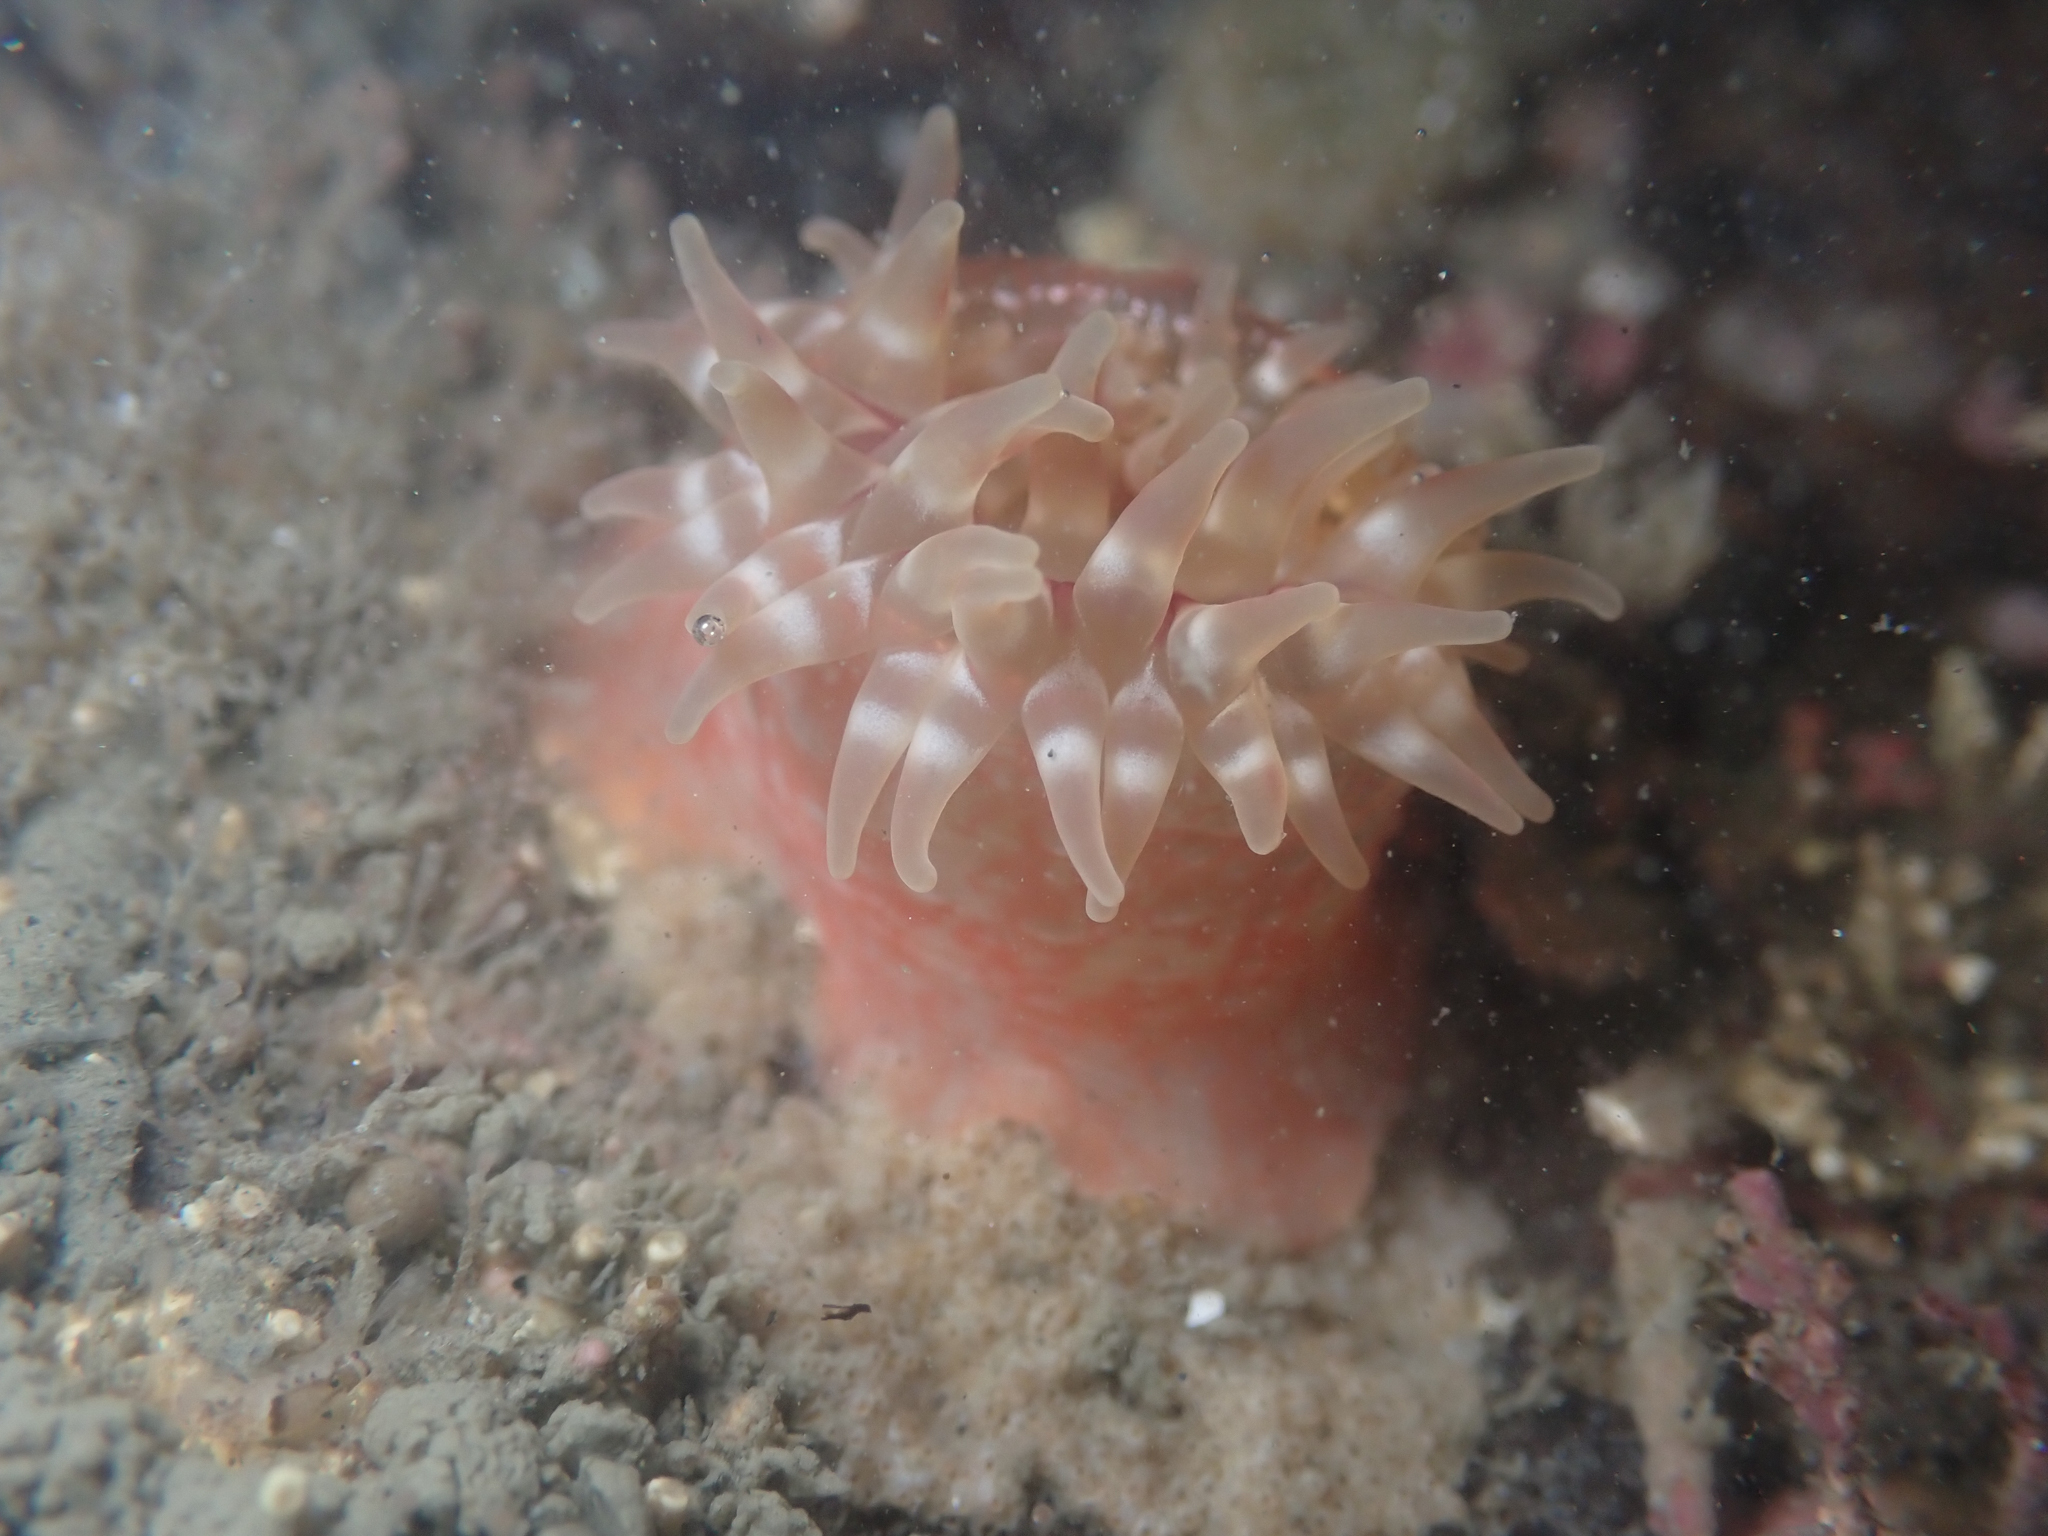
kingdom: Animalia
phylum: Cnidaria
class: Anthozoa
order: Actiniaria
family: Actiniidae
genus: Urticina
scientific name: Urticina grebelnyi
